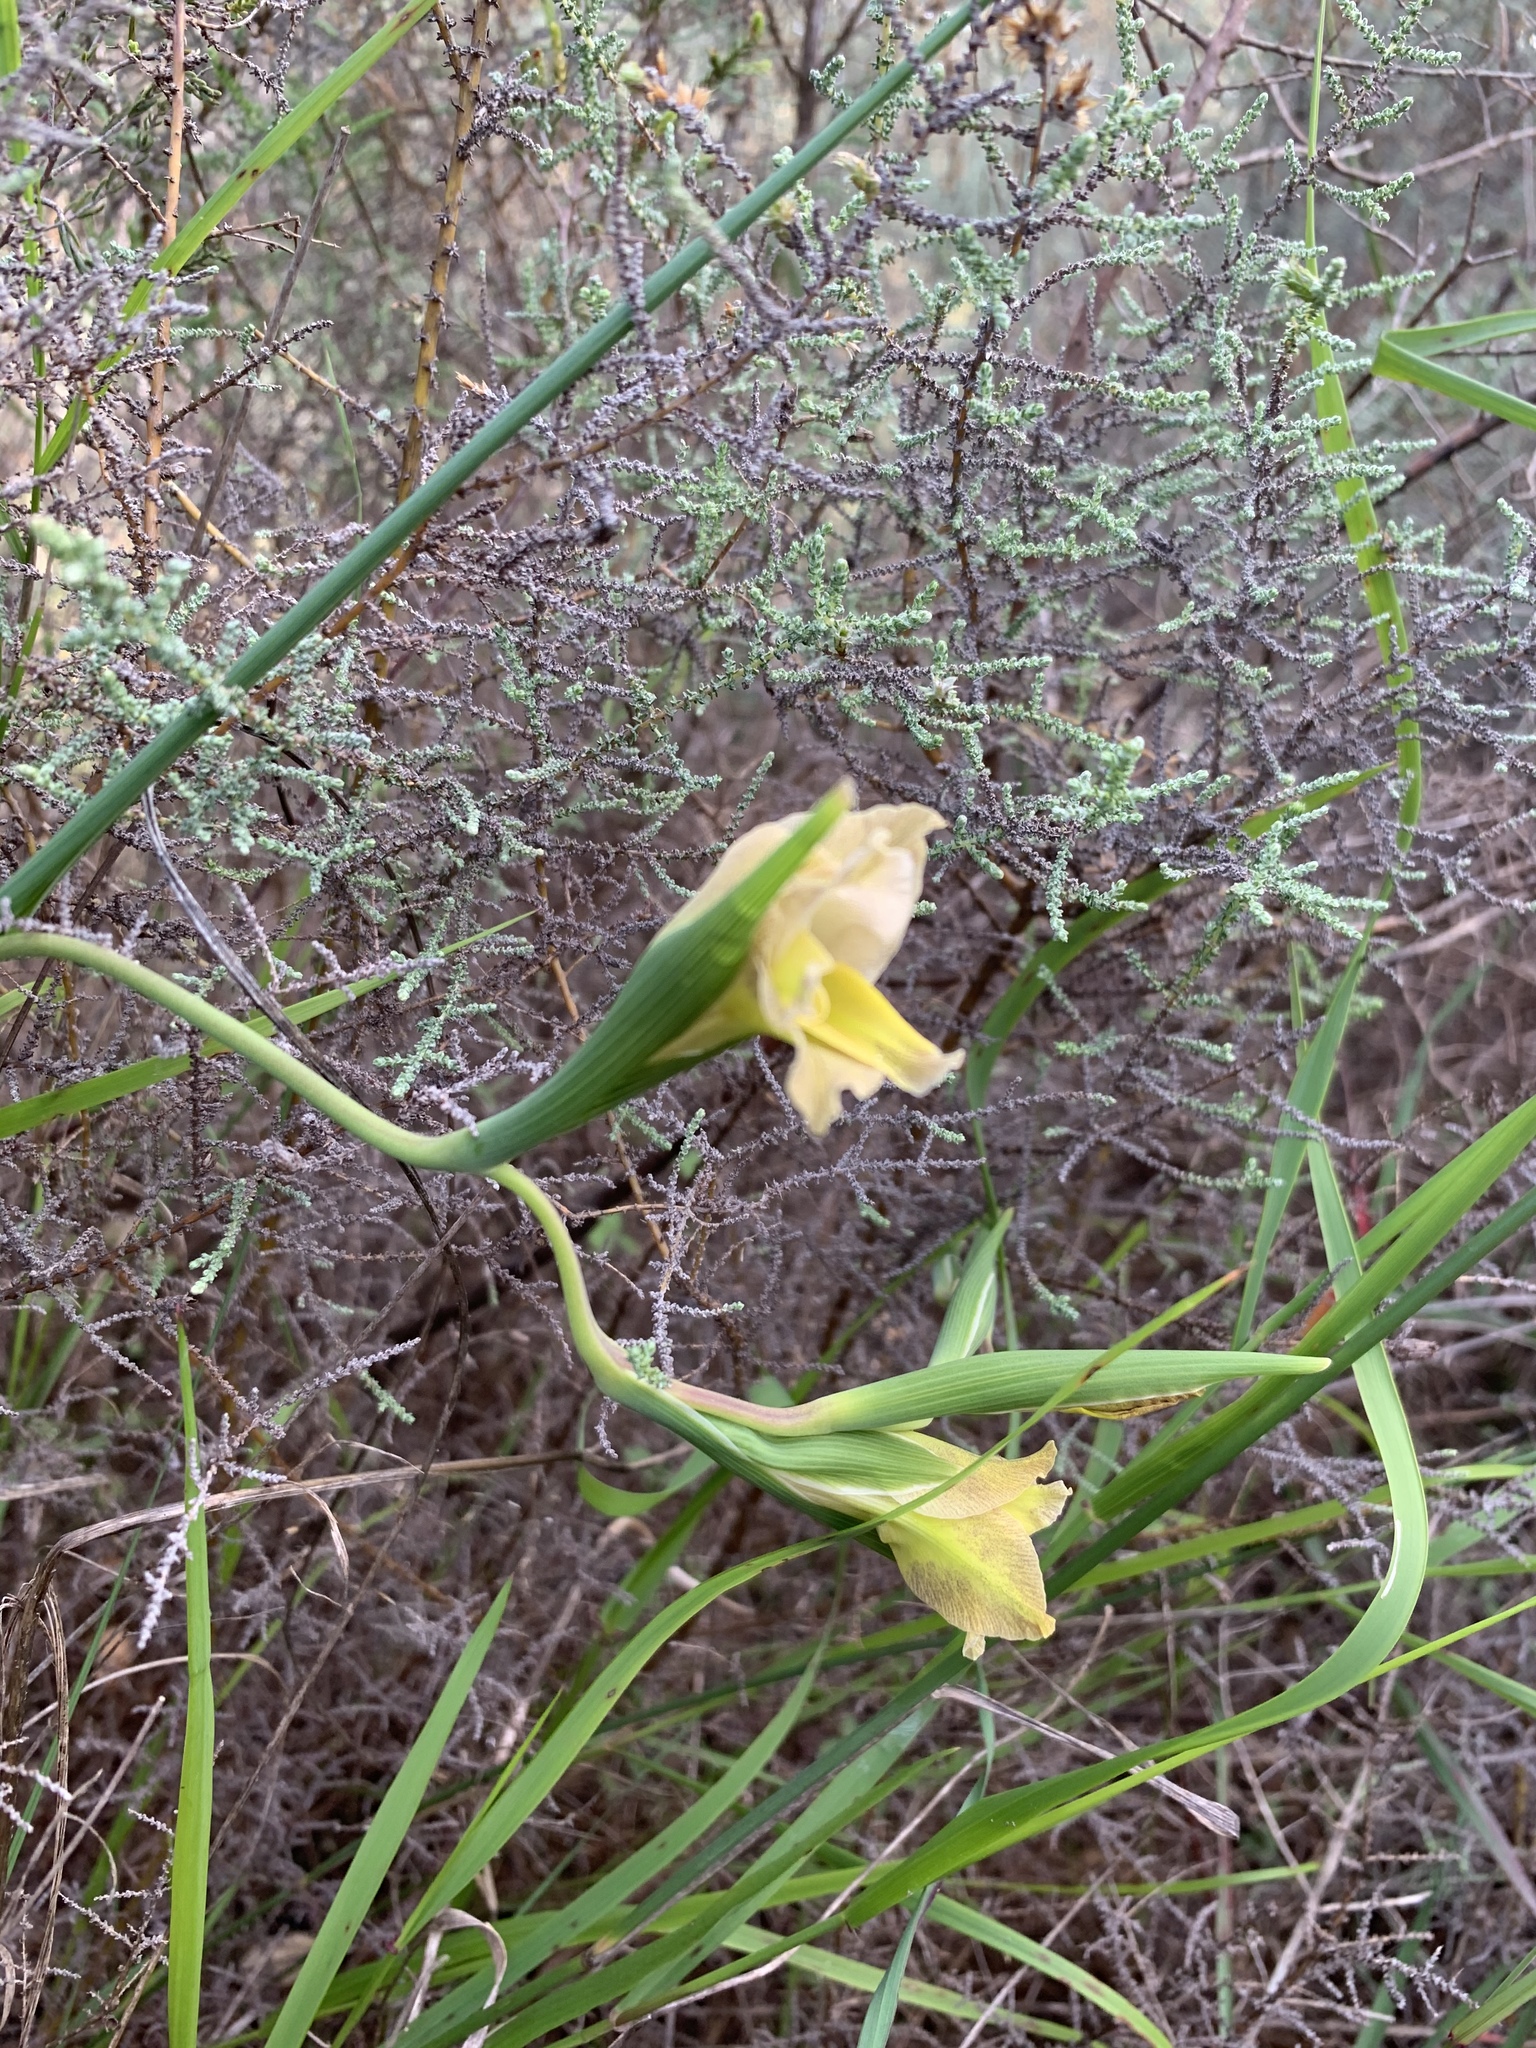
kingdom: Plantae
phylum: Tracheophyta
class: Liliopsida
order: Asparagales
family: Iridaceae
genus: Gladiolus
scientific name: Gladiolus carinatus
